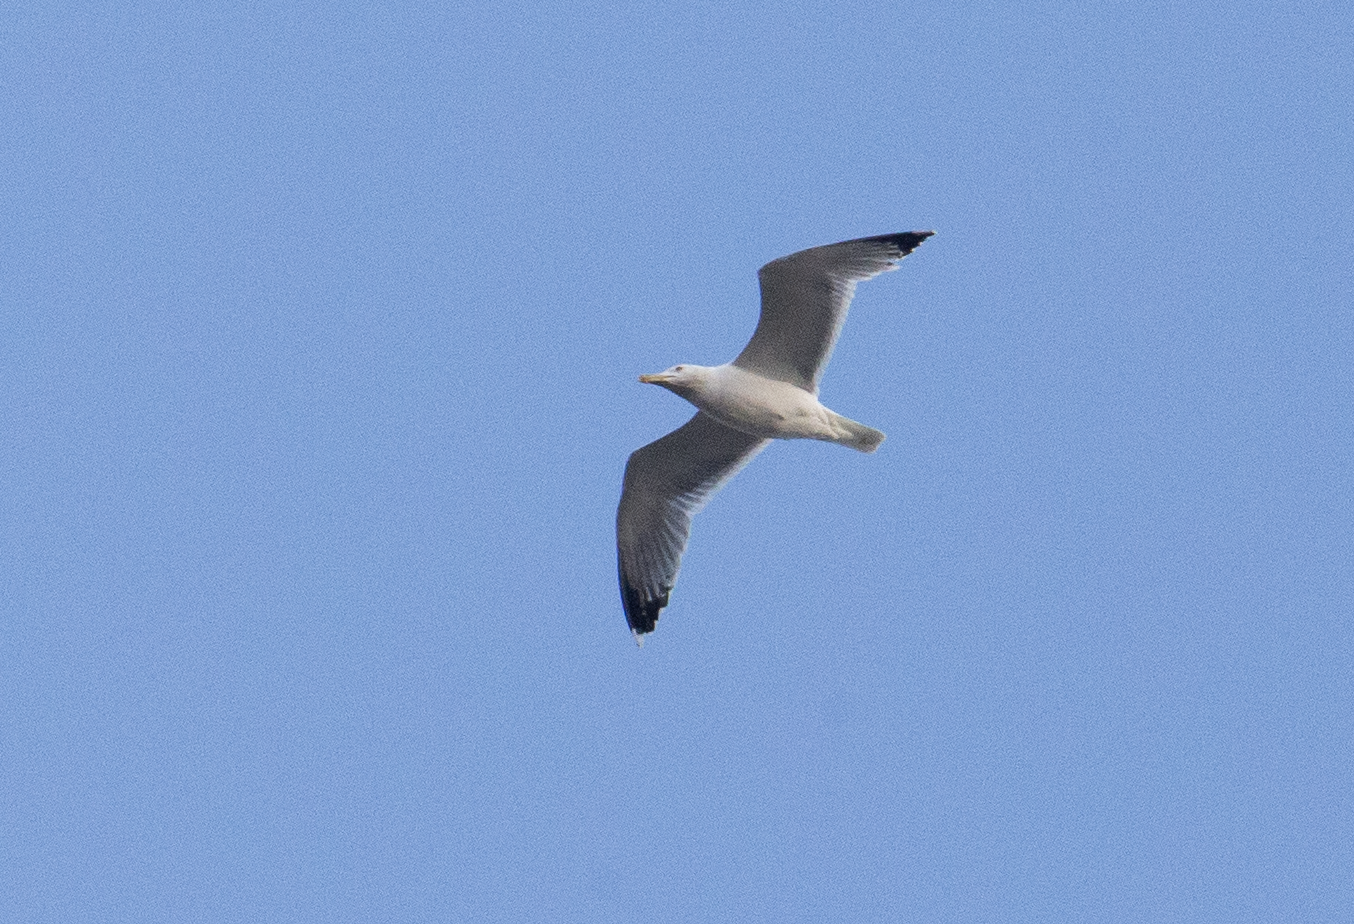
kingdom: Animalia
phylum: Chordata
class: Aves
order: Charadriiformes
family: Laridae
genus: Larus
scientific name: Larus michahellis
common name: Yellow-legged gull
